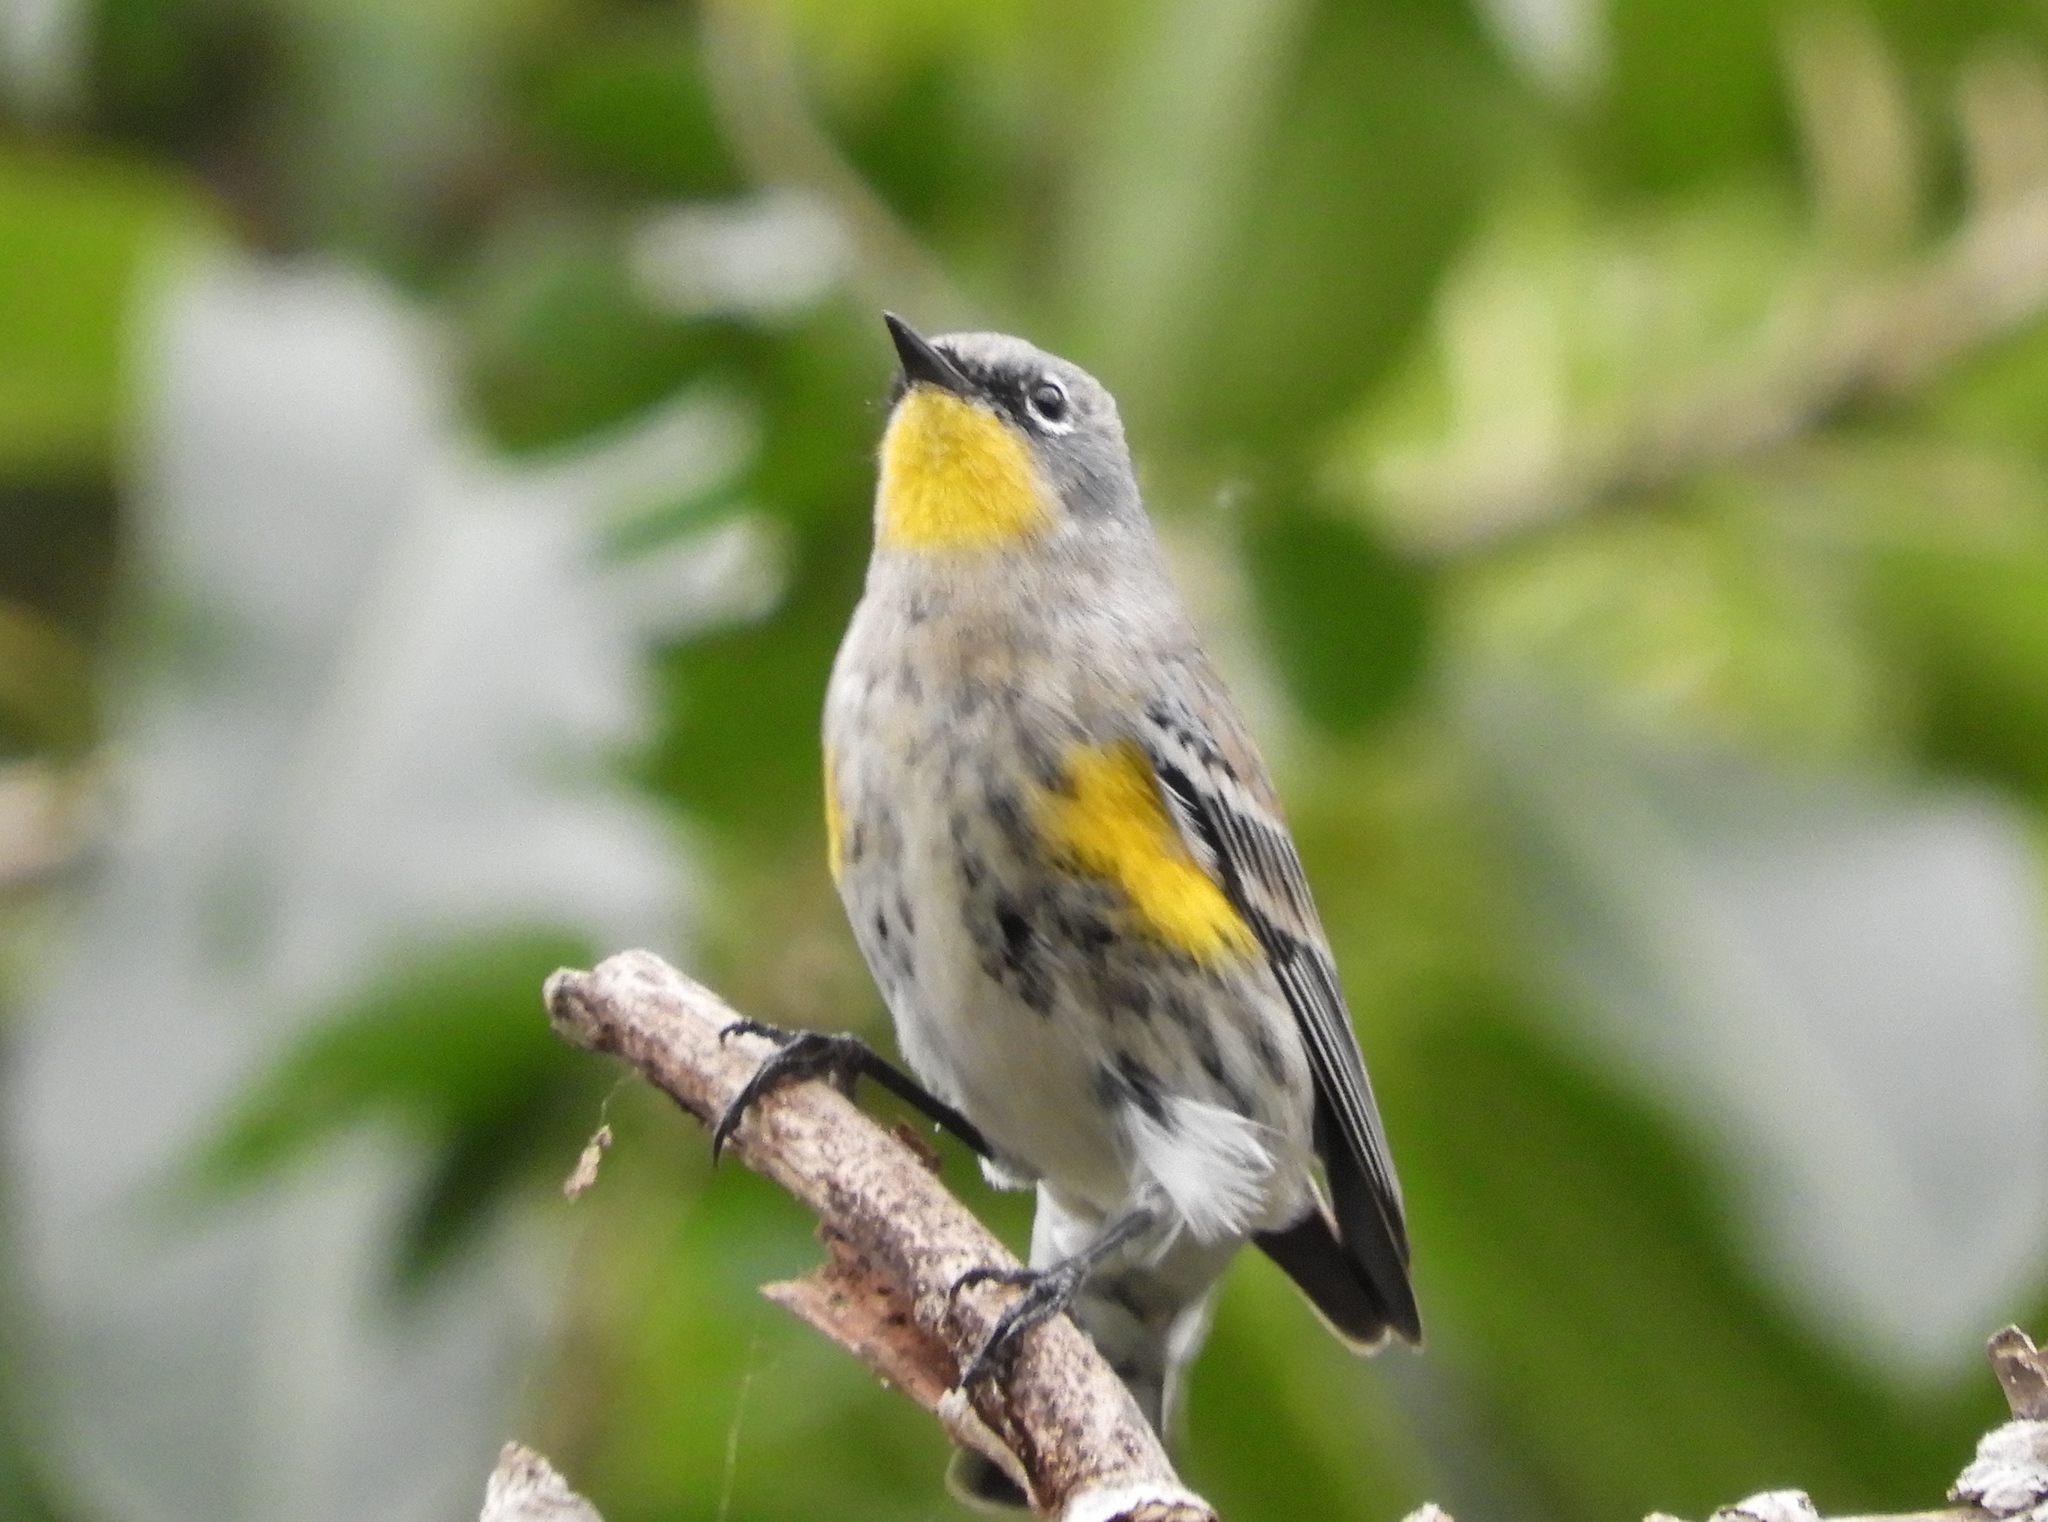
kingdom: Animalia
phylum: Chordata
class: Aves
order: Passeriformes
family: Parulidae
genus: Setophaga
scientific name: Setophaga coronata
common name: Myrtle warbler
